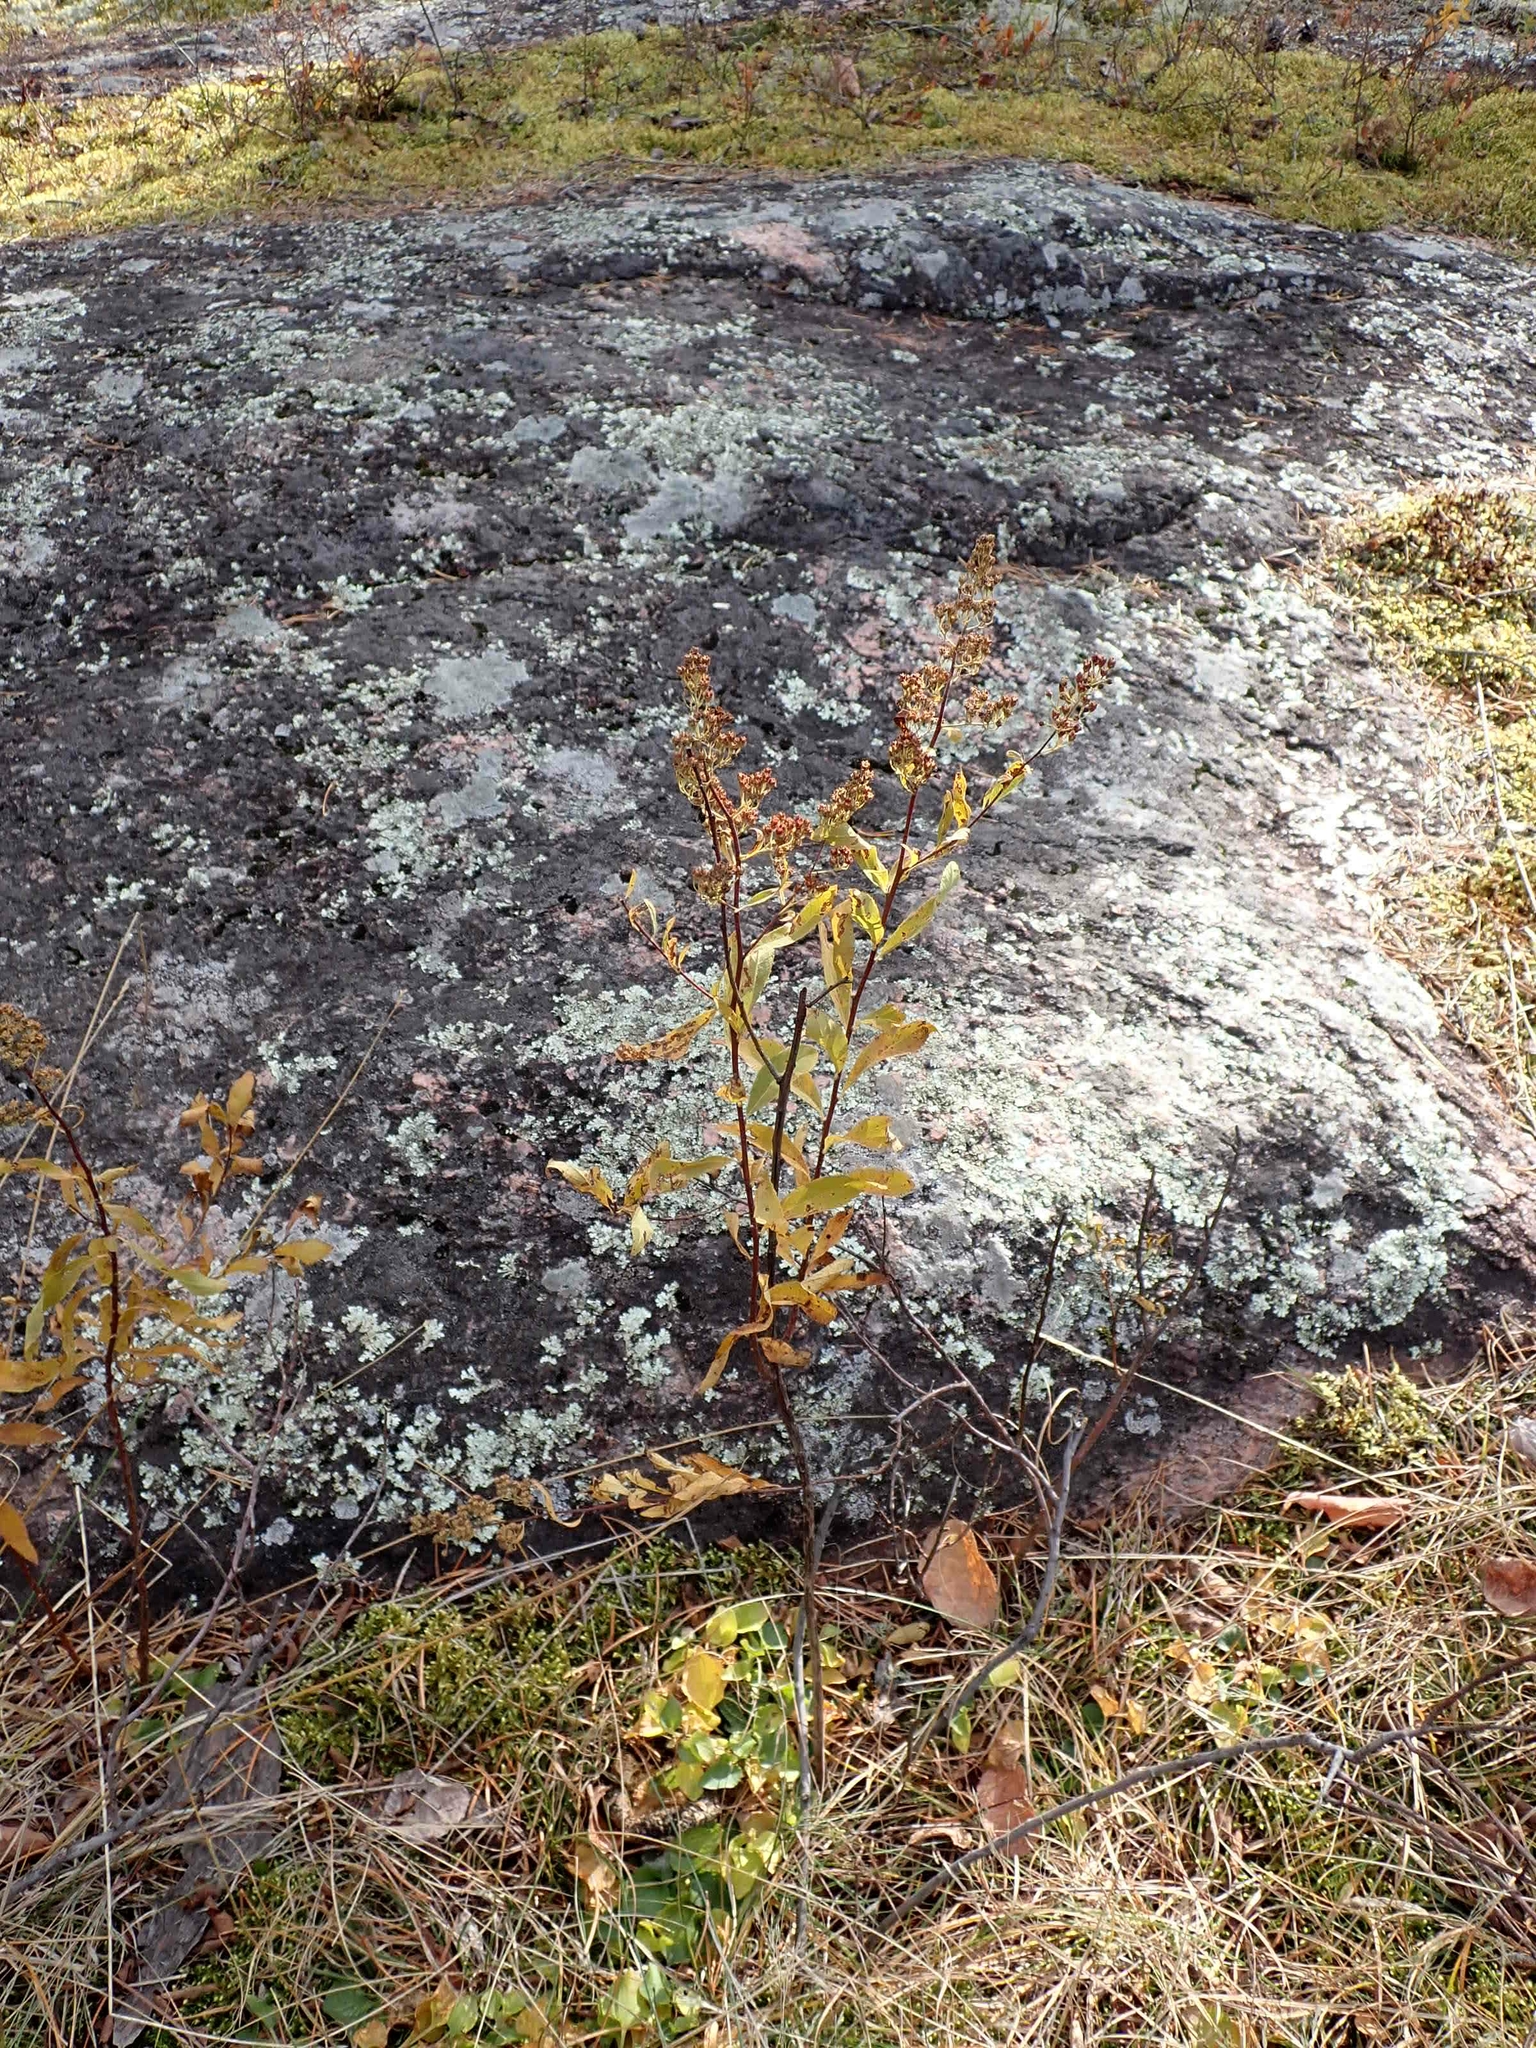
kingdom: Plantae
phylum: Tracheophyta
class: Magnoliopsida
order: Rosales
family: Rosaceae
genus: Spiraea
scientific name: Spiraea alba
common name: Pale bridewort
